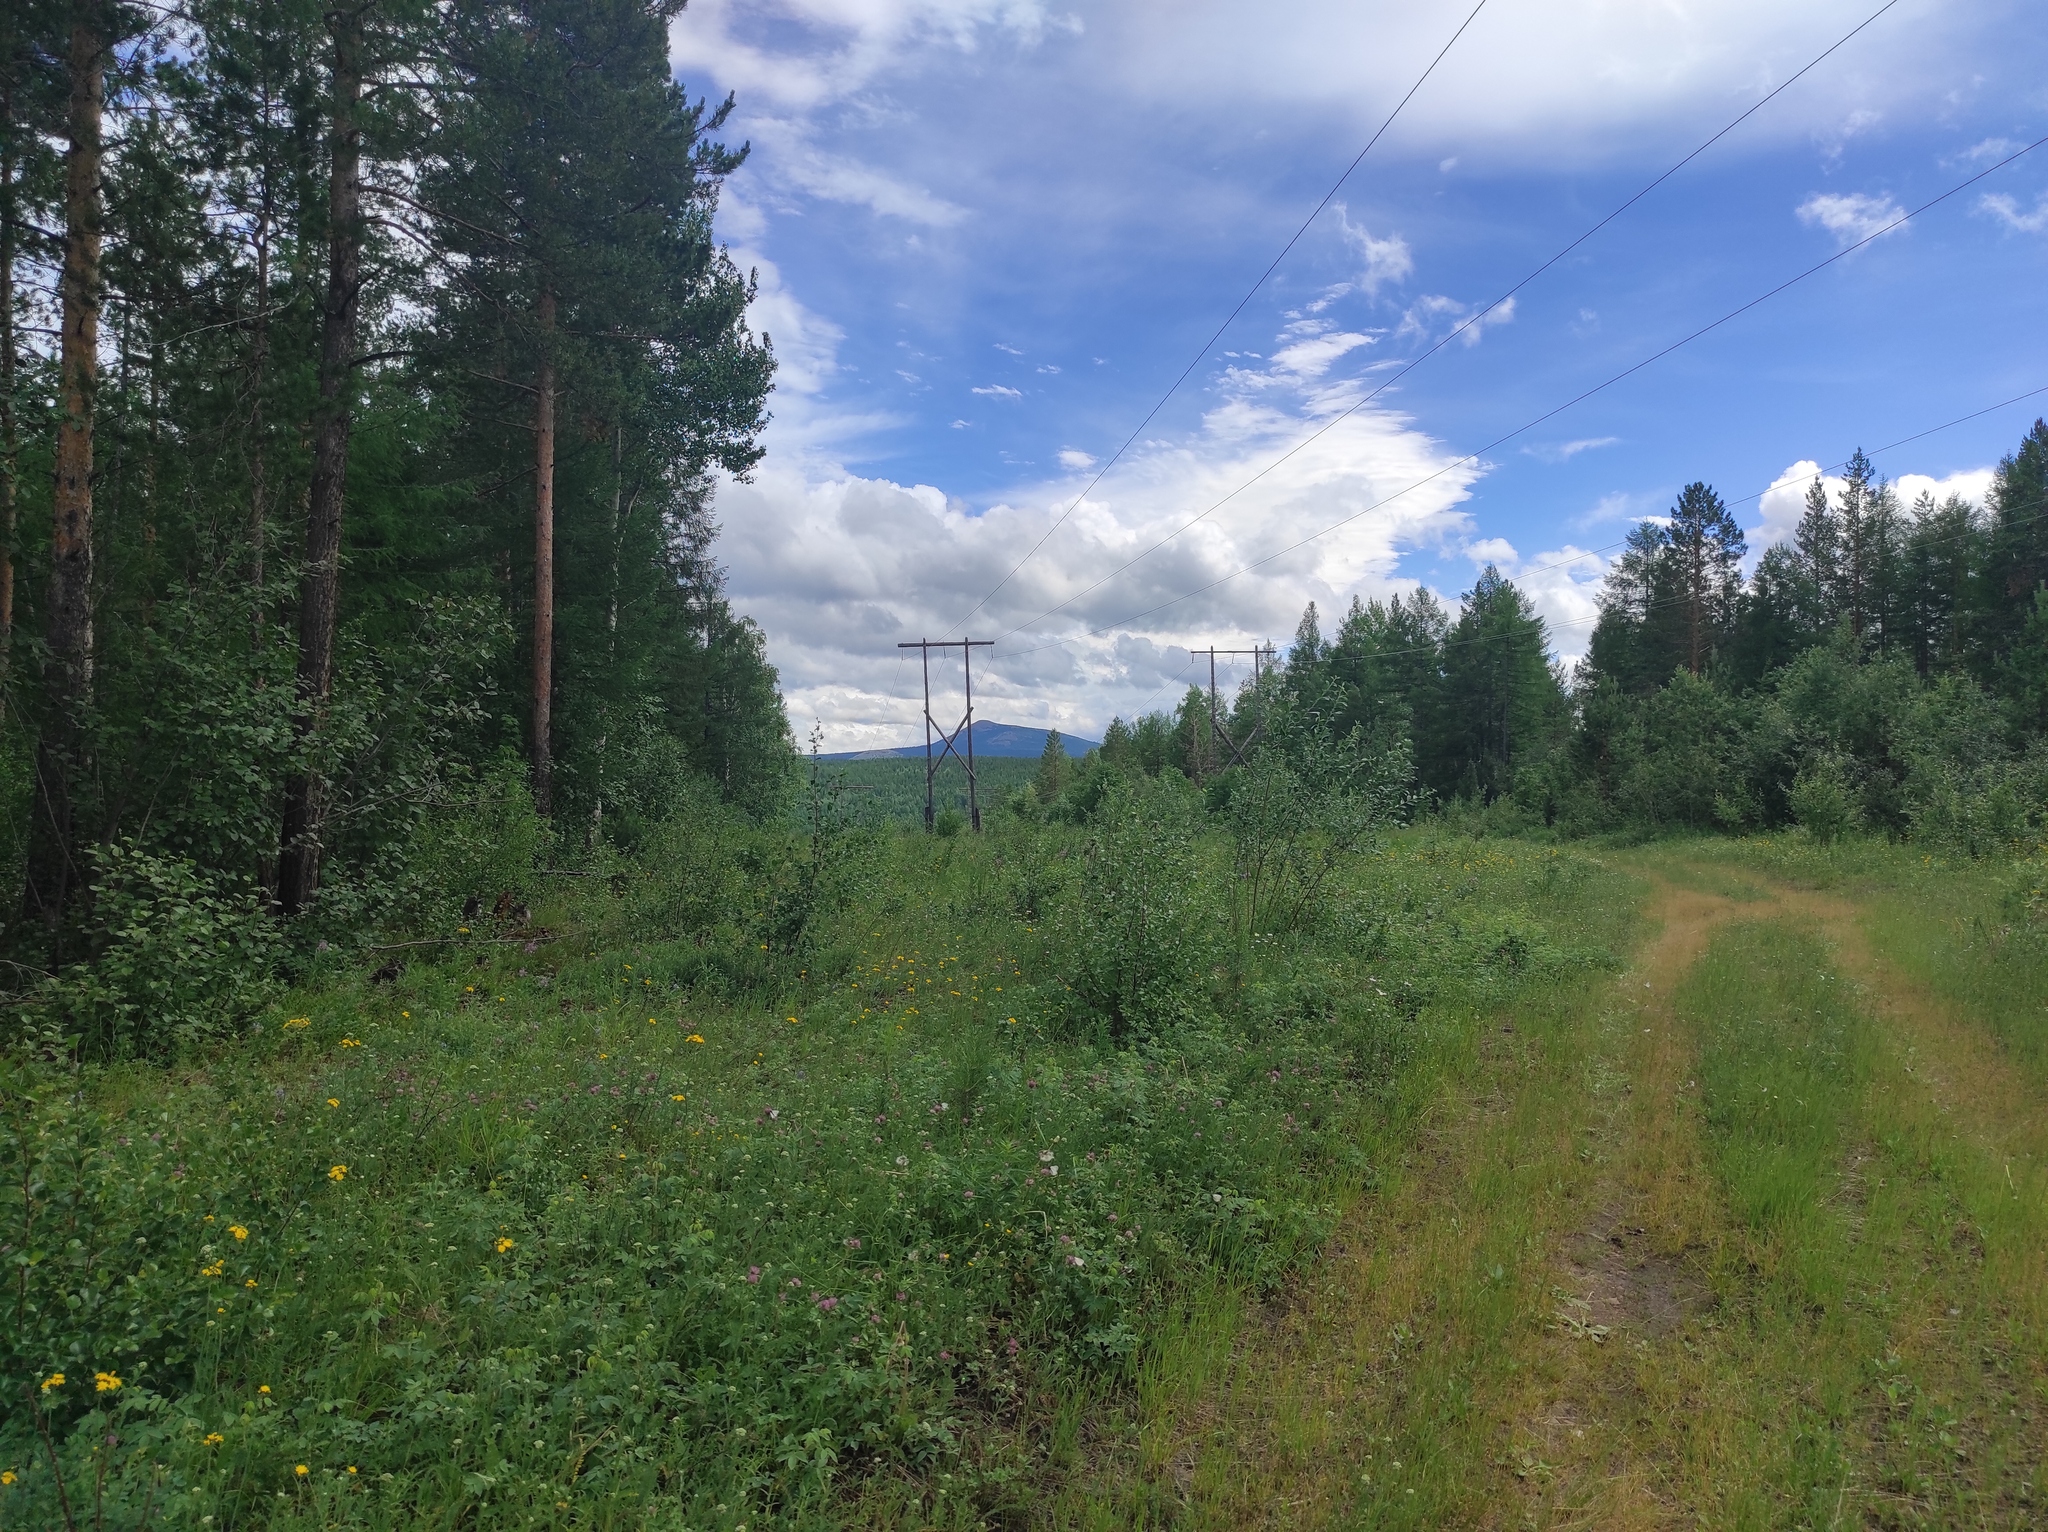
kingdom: Plantae
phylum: Tracheophyta
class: Pinopsida
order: Pinales
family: Pinaceae
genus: Pinus
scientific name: Pinus sylvestris
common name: Scots pine
